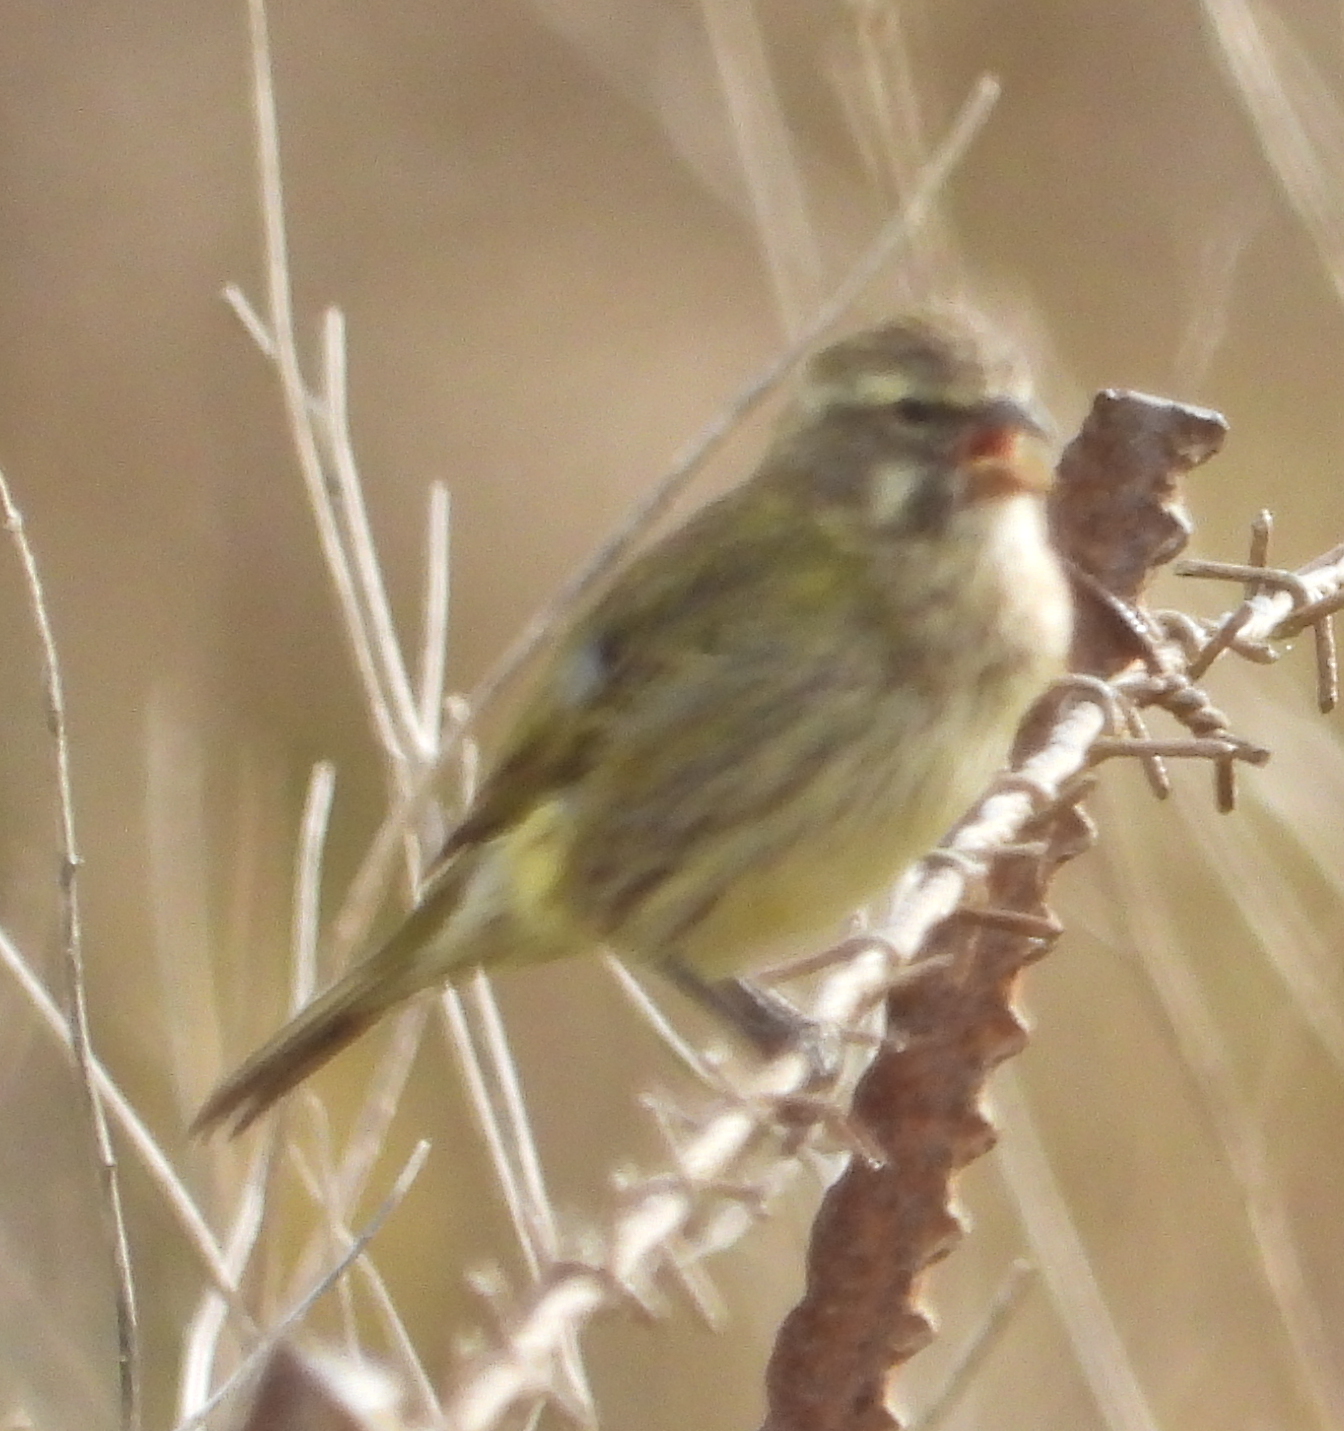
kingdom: Animalia
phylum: Chordata
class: Aves
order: Passeriformes
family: Fringillidae
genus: Crithagra
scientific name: Crithagra flaviventris
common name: Yellow canary
